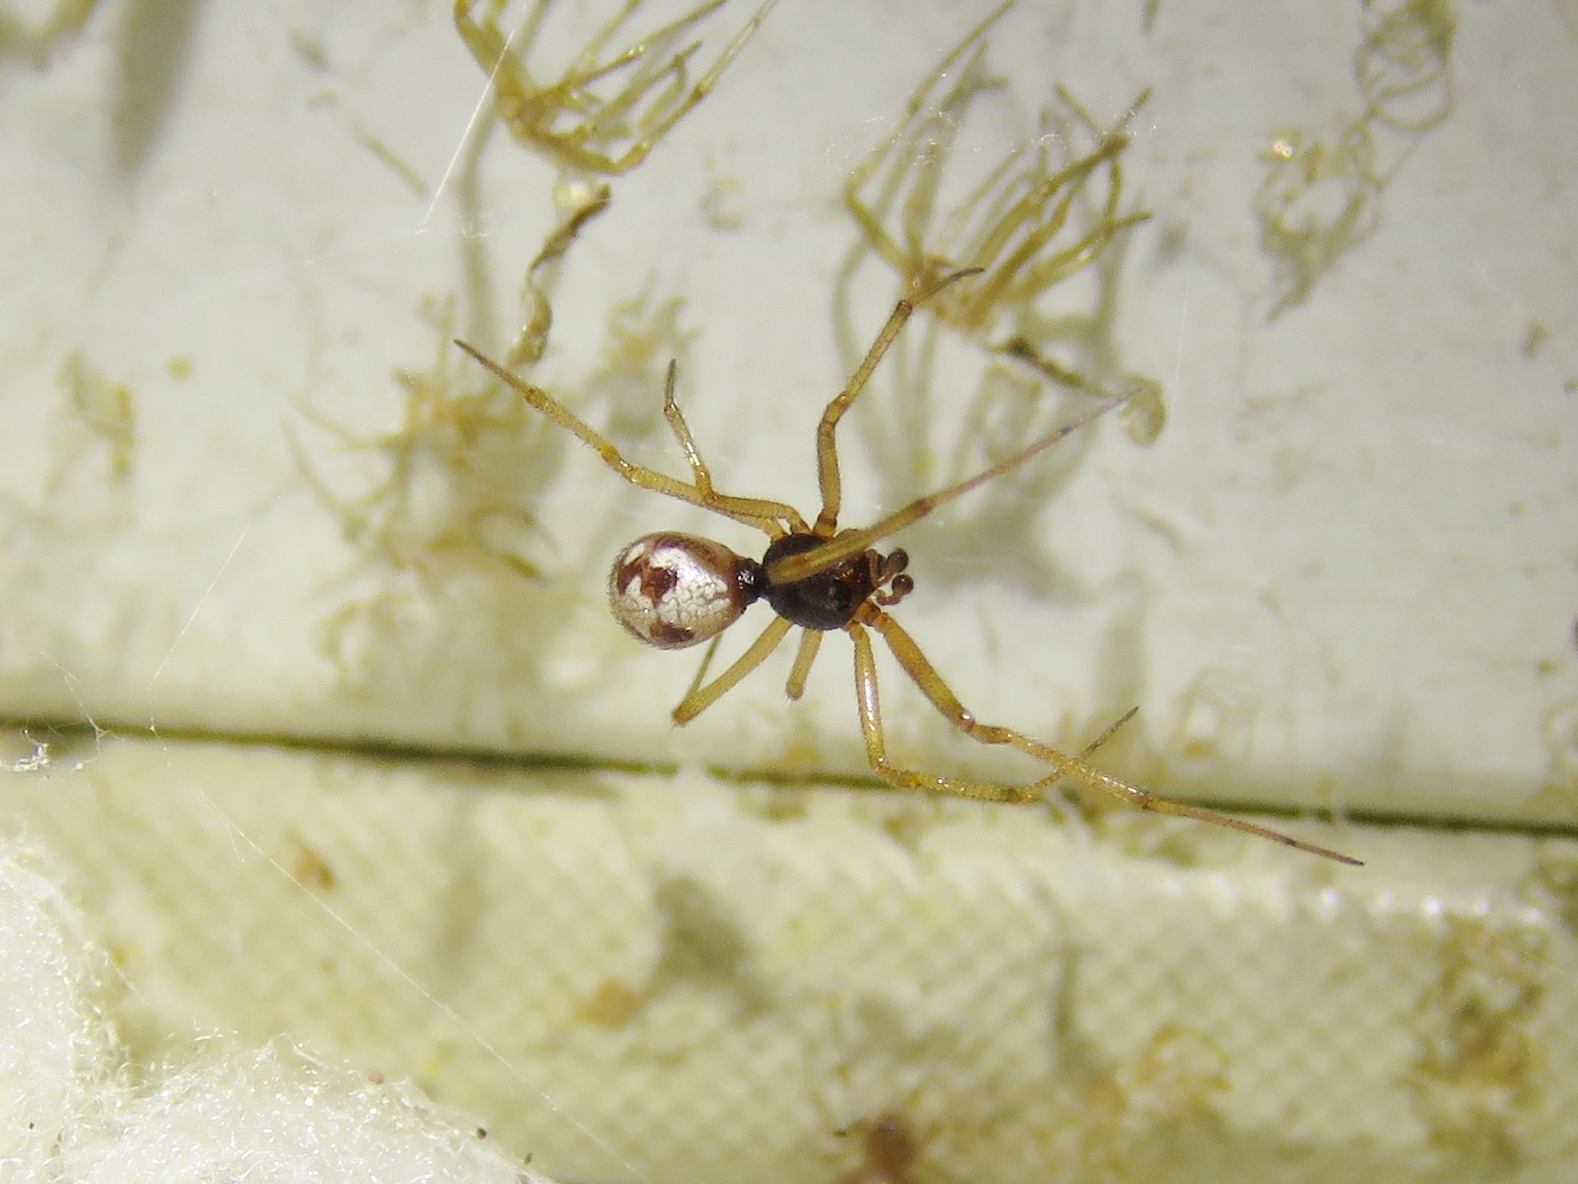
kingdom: Animalia
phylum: Arthropoda
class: Arachnida
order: Araneae
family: Theridiidae
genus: Steatoda
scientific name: Steatoda triangulosa
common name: Triangulate bud spider
